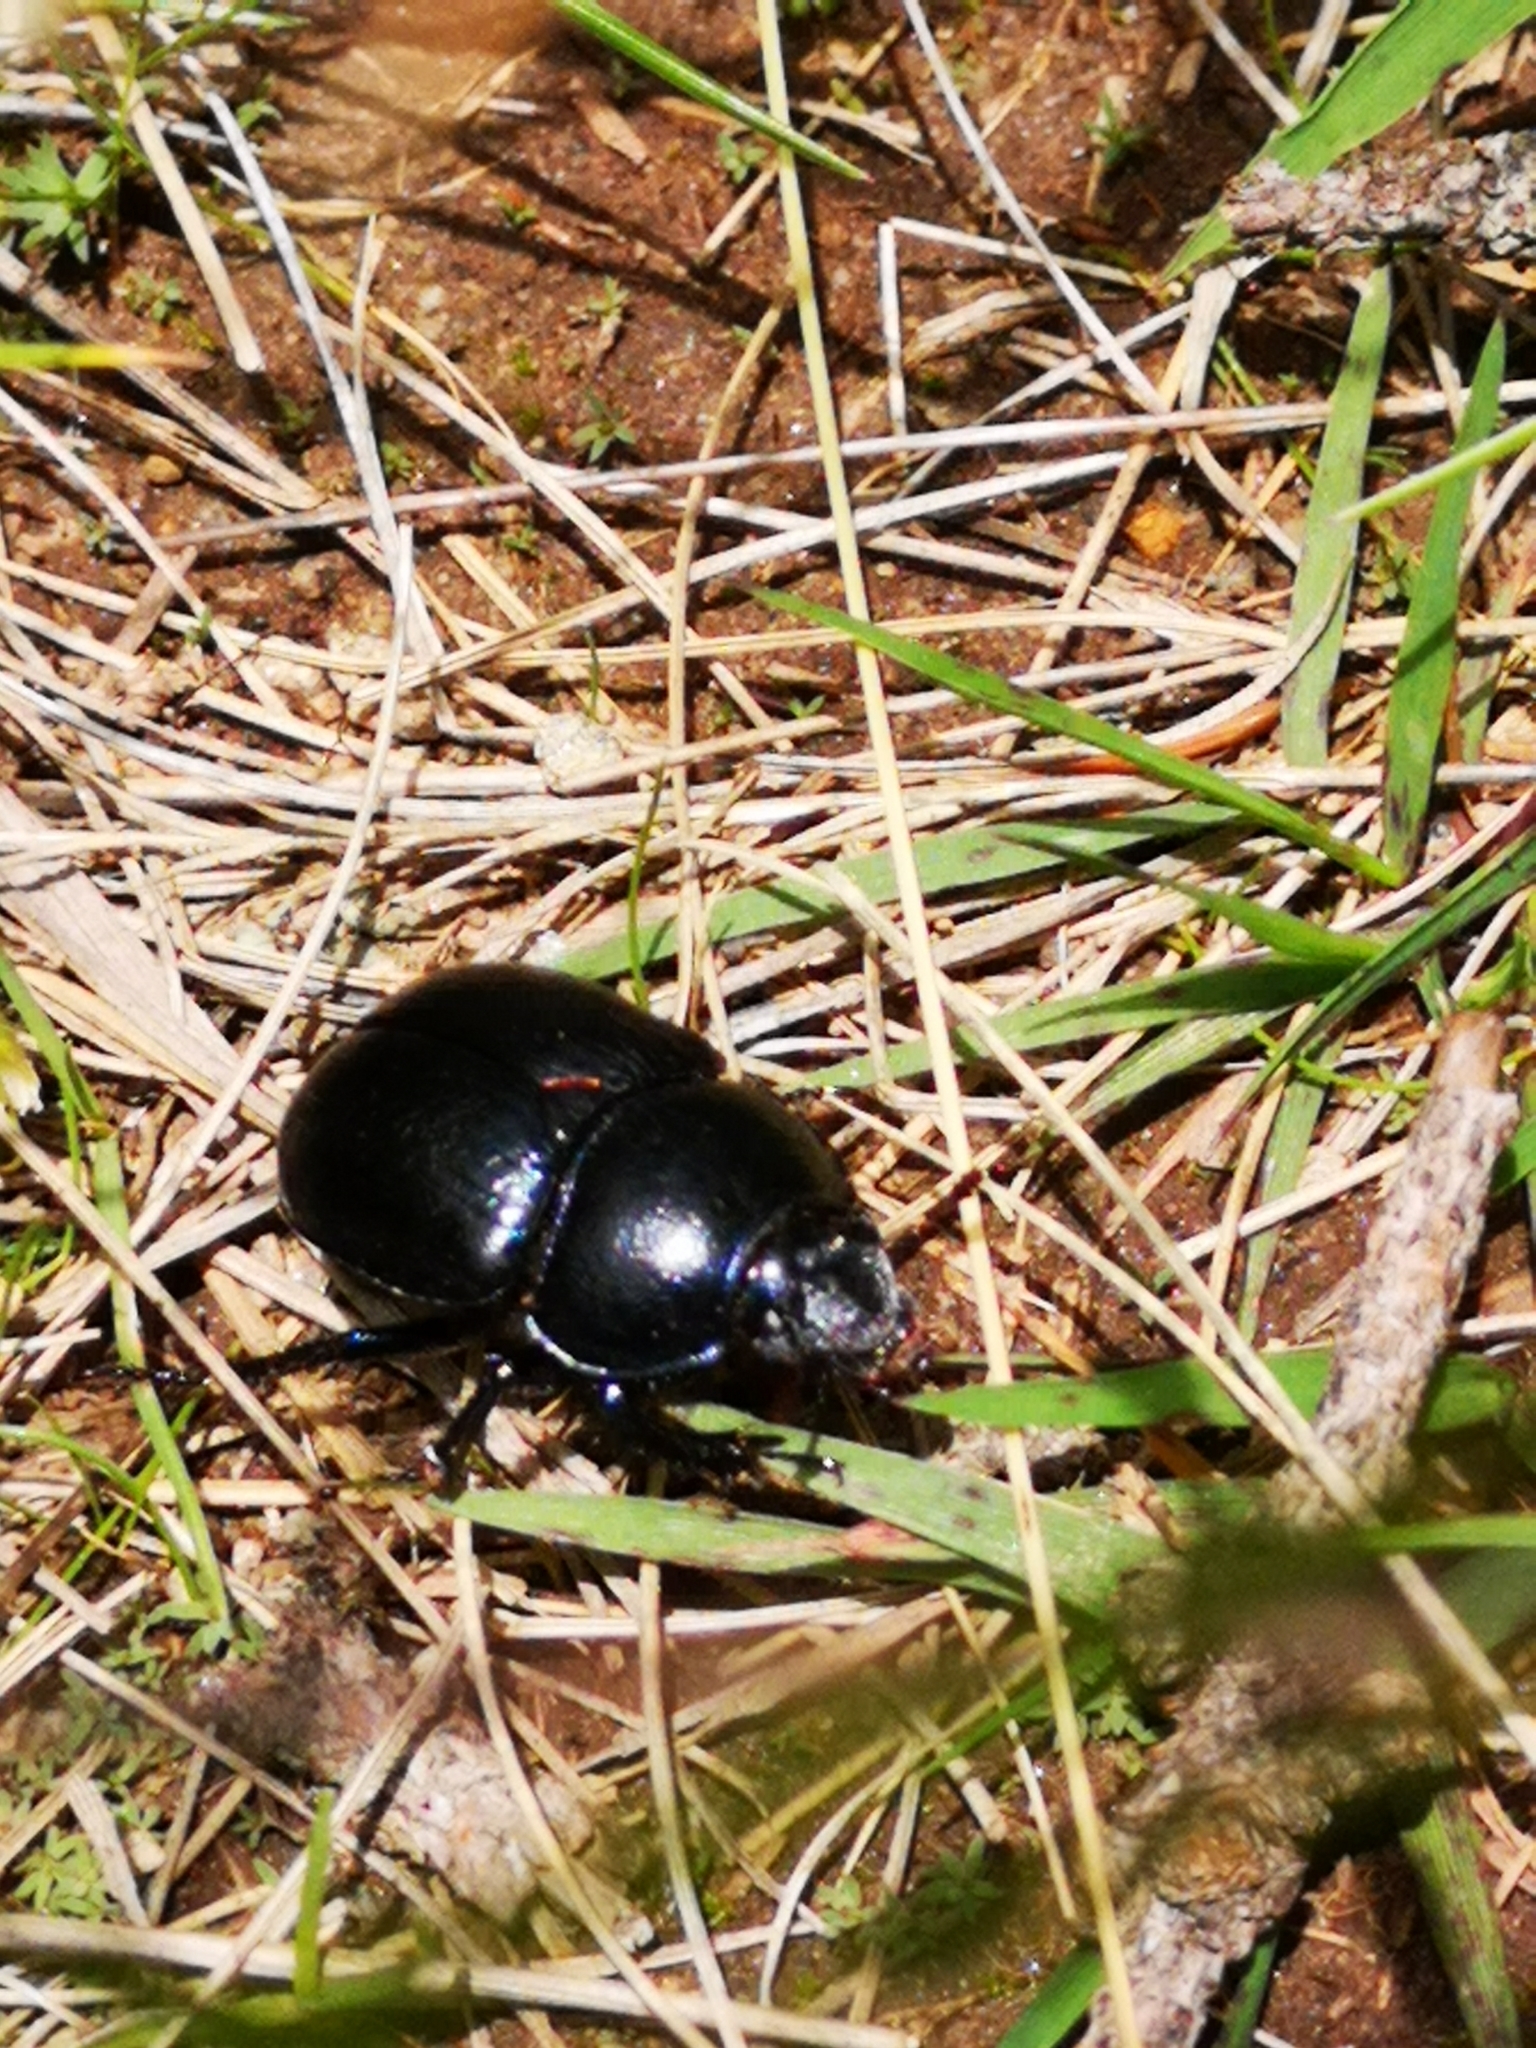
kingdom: Animalia
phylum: Arthropoda
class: Insecta
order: Coleoptera
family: Geotrupidae
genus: Anoplotrupes
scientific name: Anoplotrupes stercorosus
